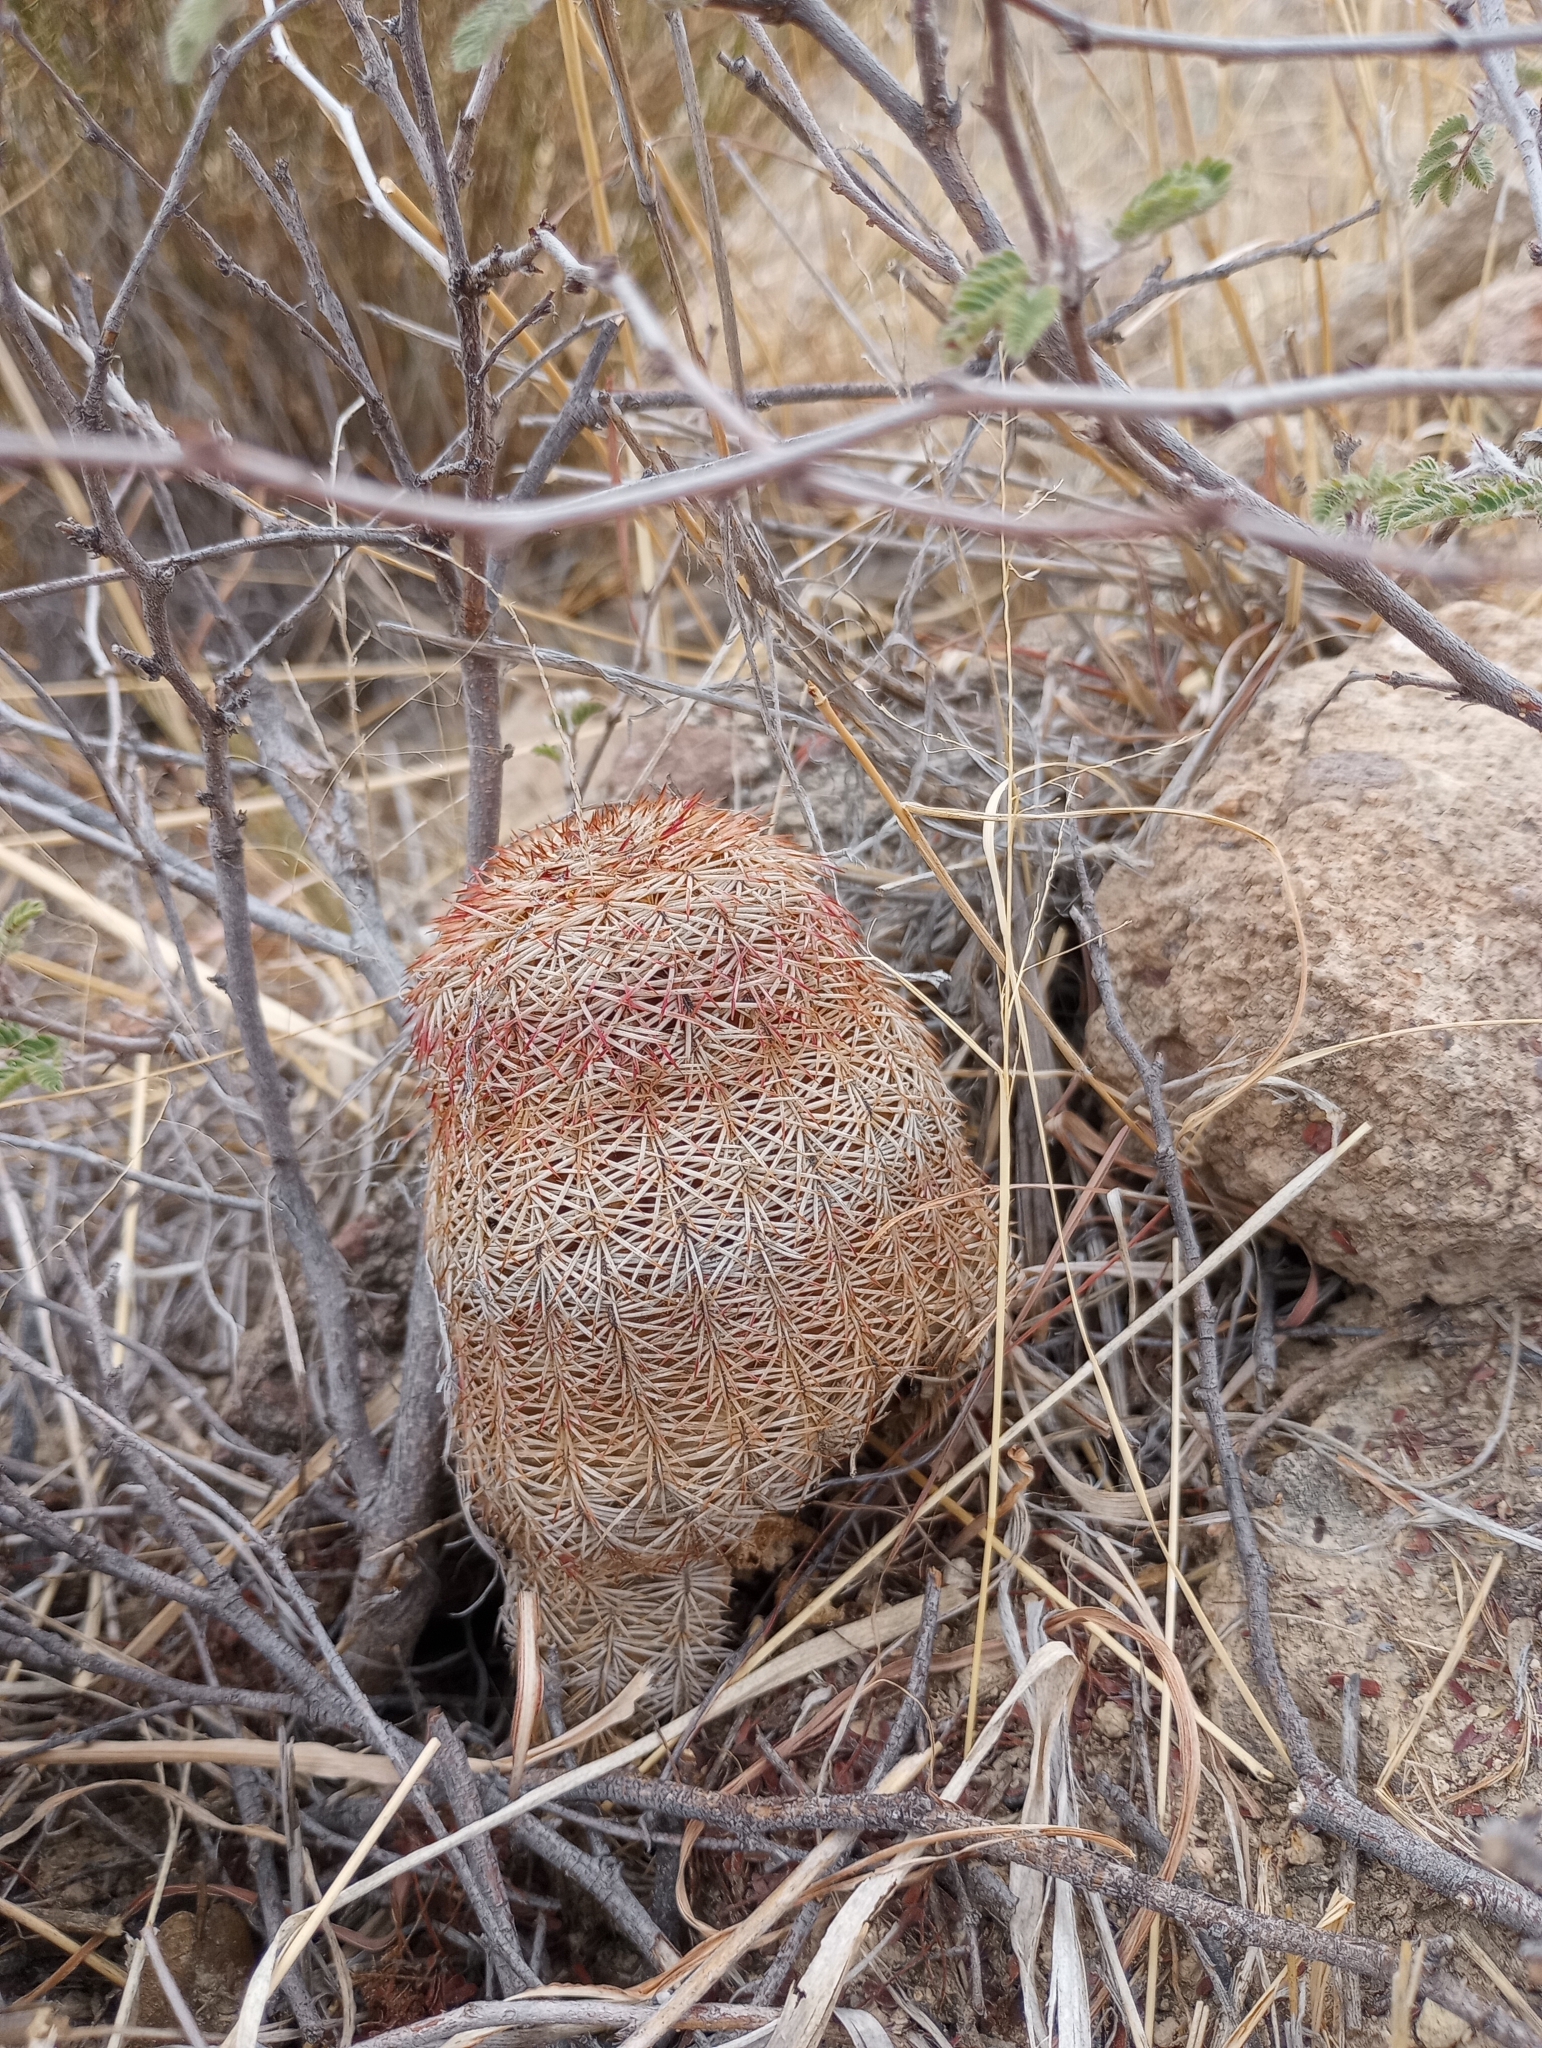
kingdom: Plantae
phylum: Tracheophyta
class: Magnoliopsida
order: Caryophyllales
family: Cactaceae
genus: Echinocereus
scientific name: Echinocereus rigidissimus
